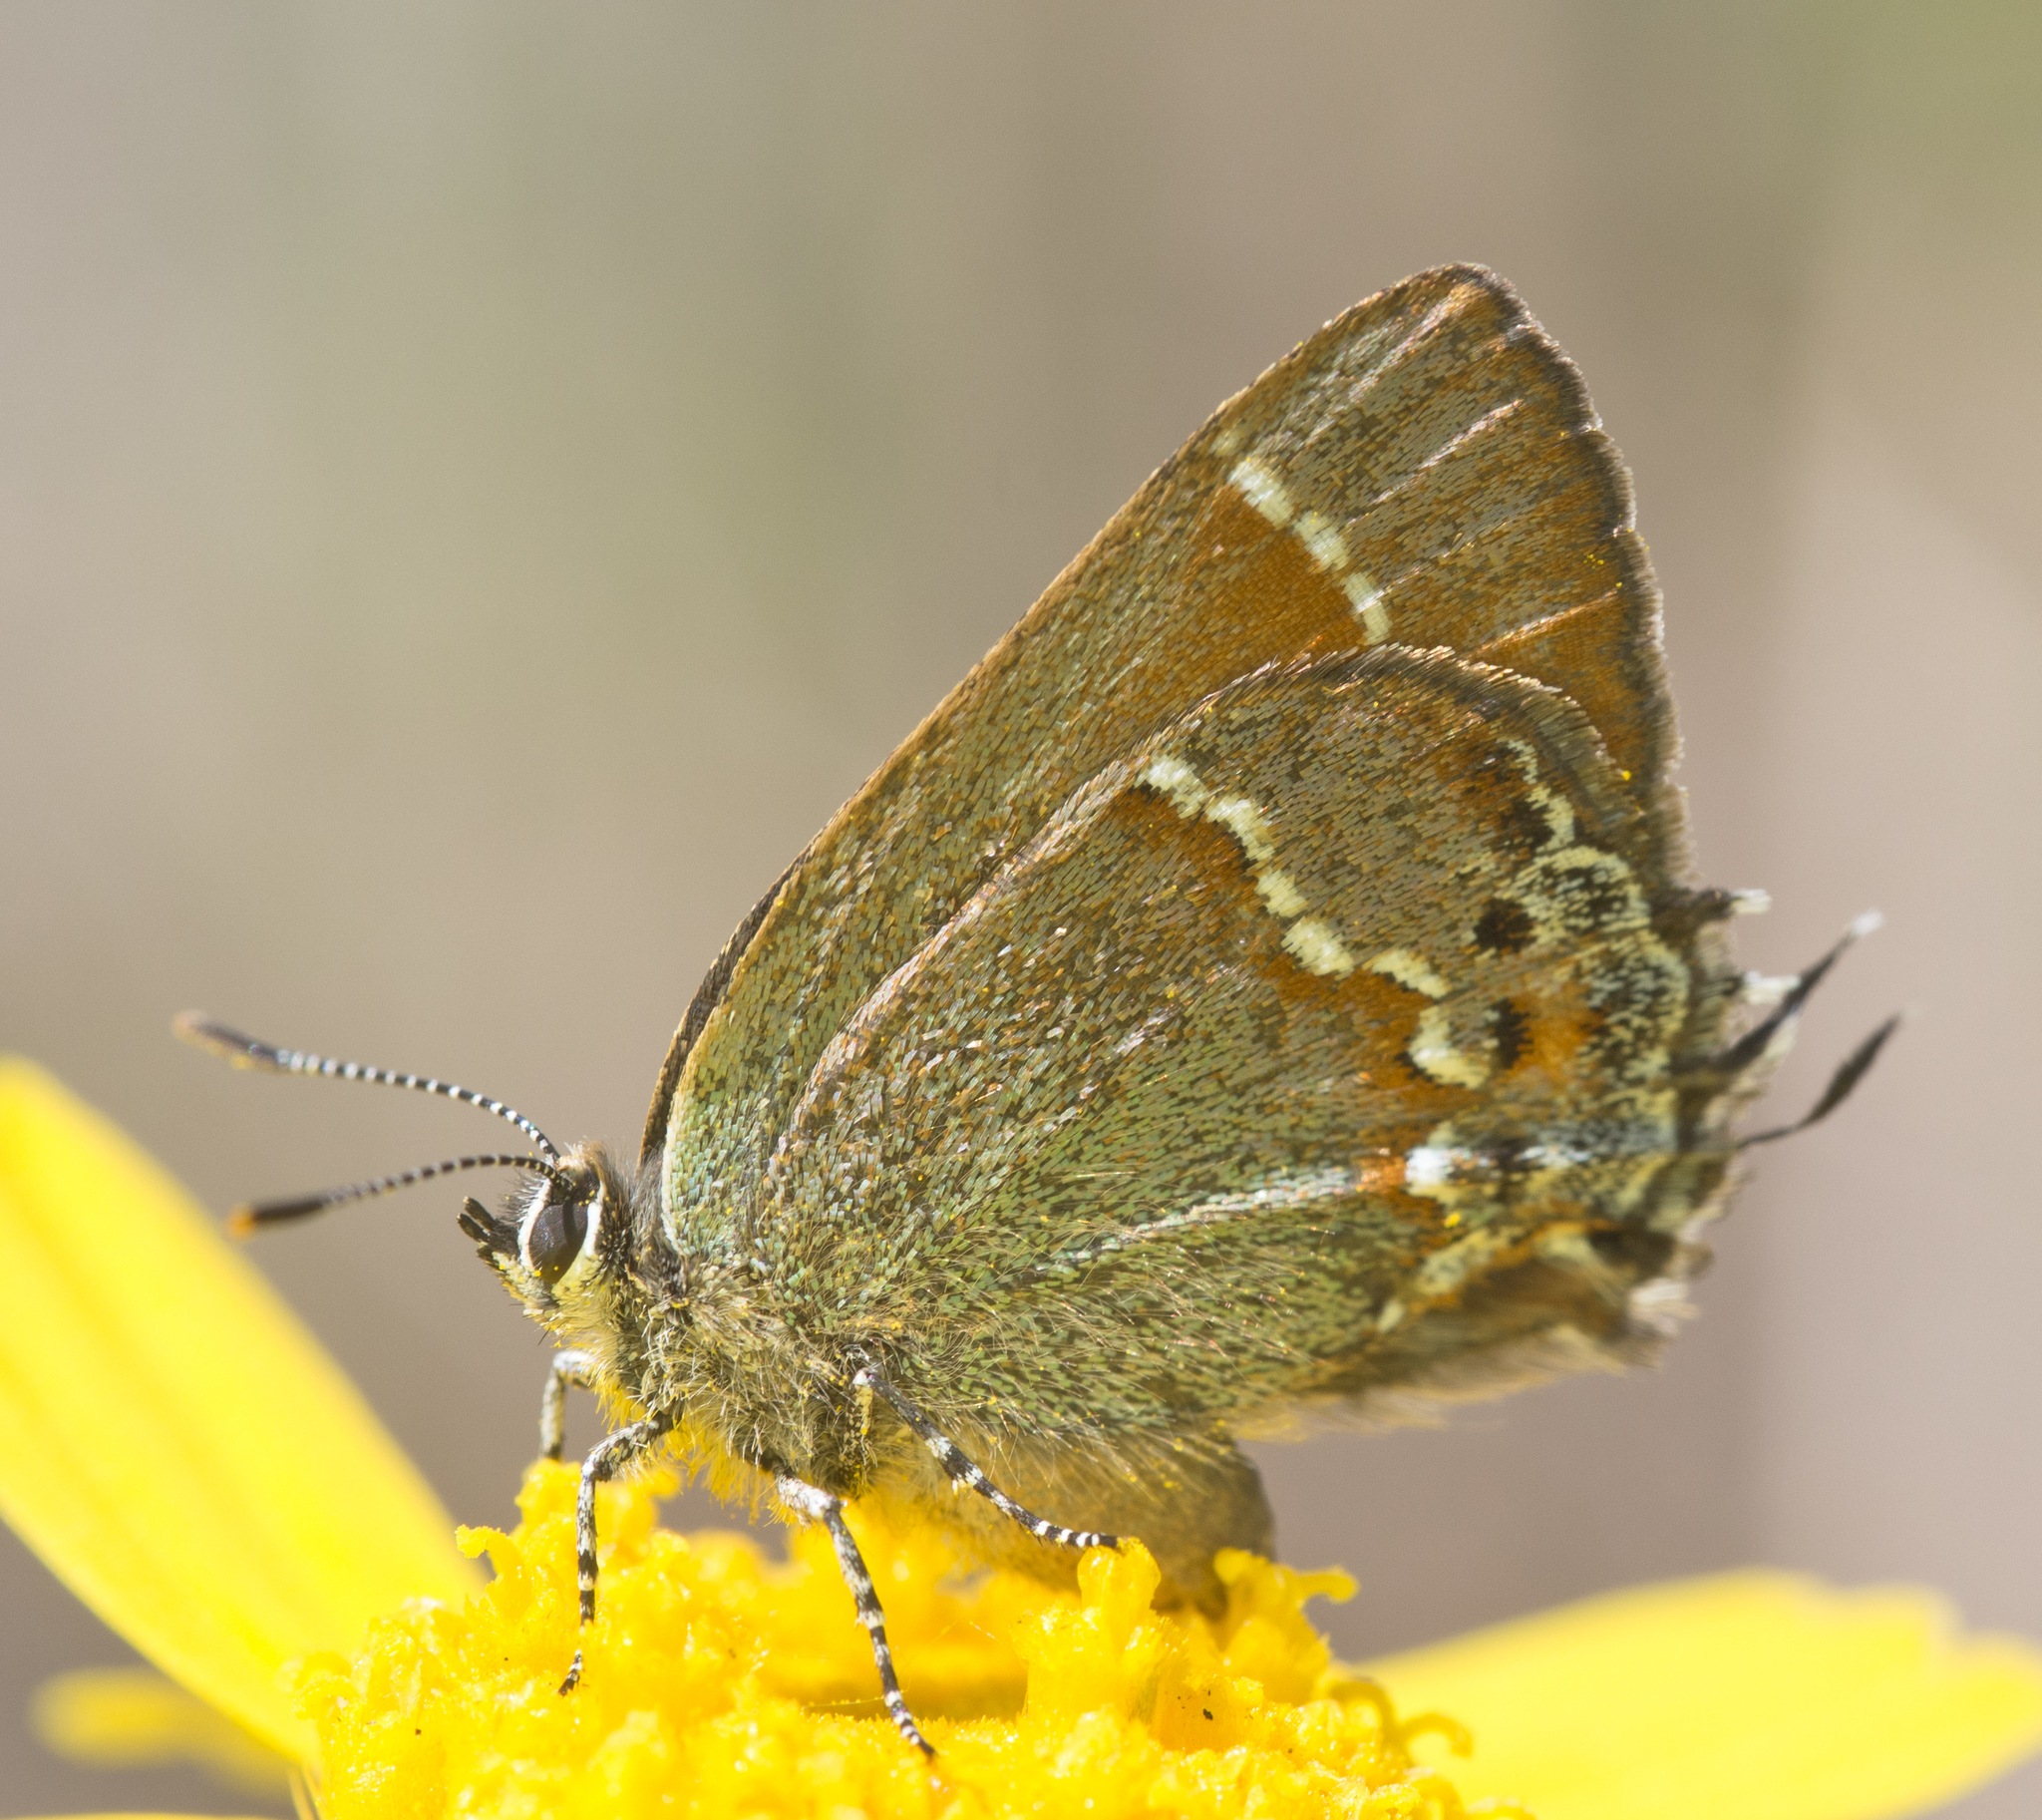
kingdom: Animalia
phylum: Arthropoda
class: Insecta
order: Lepidoptera
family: Lycaenidae
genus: Mitoura
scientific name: Mitoura siva
